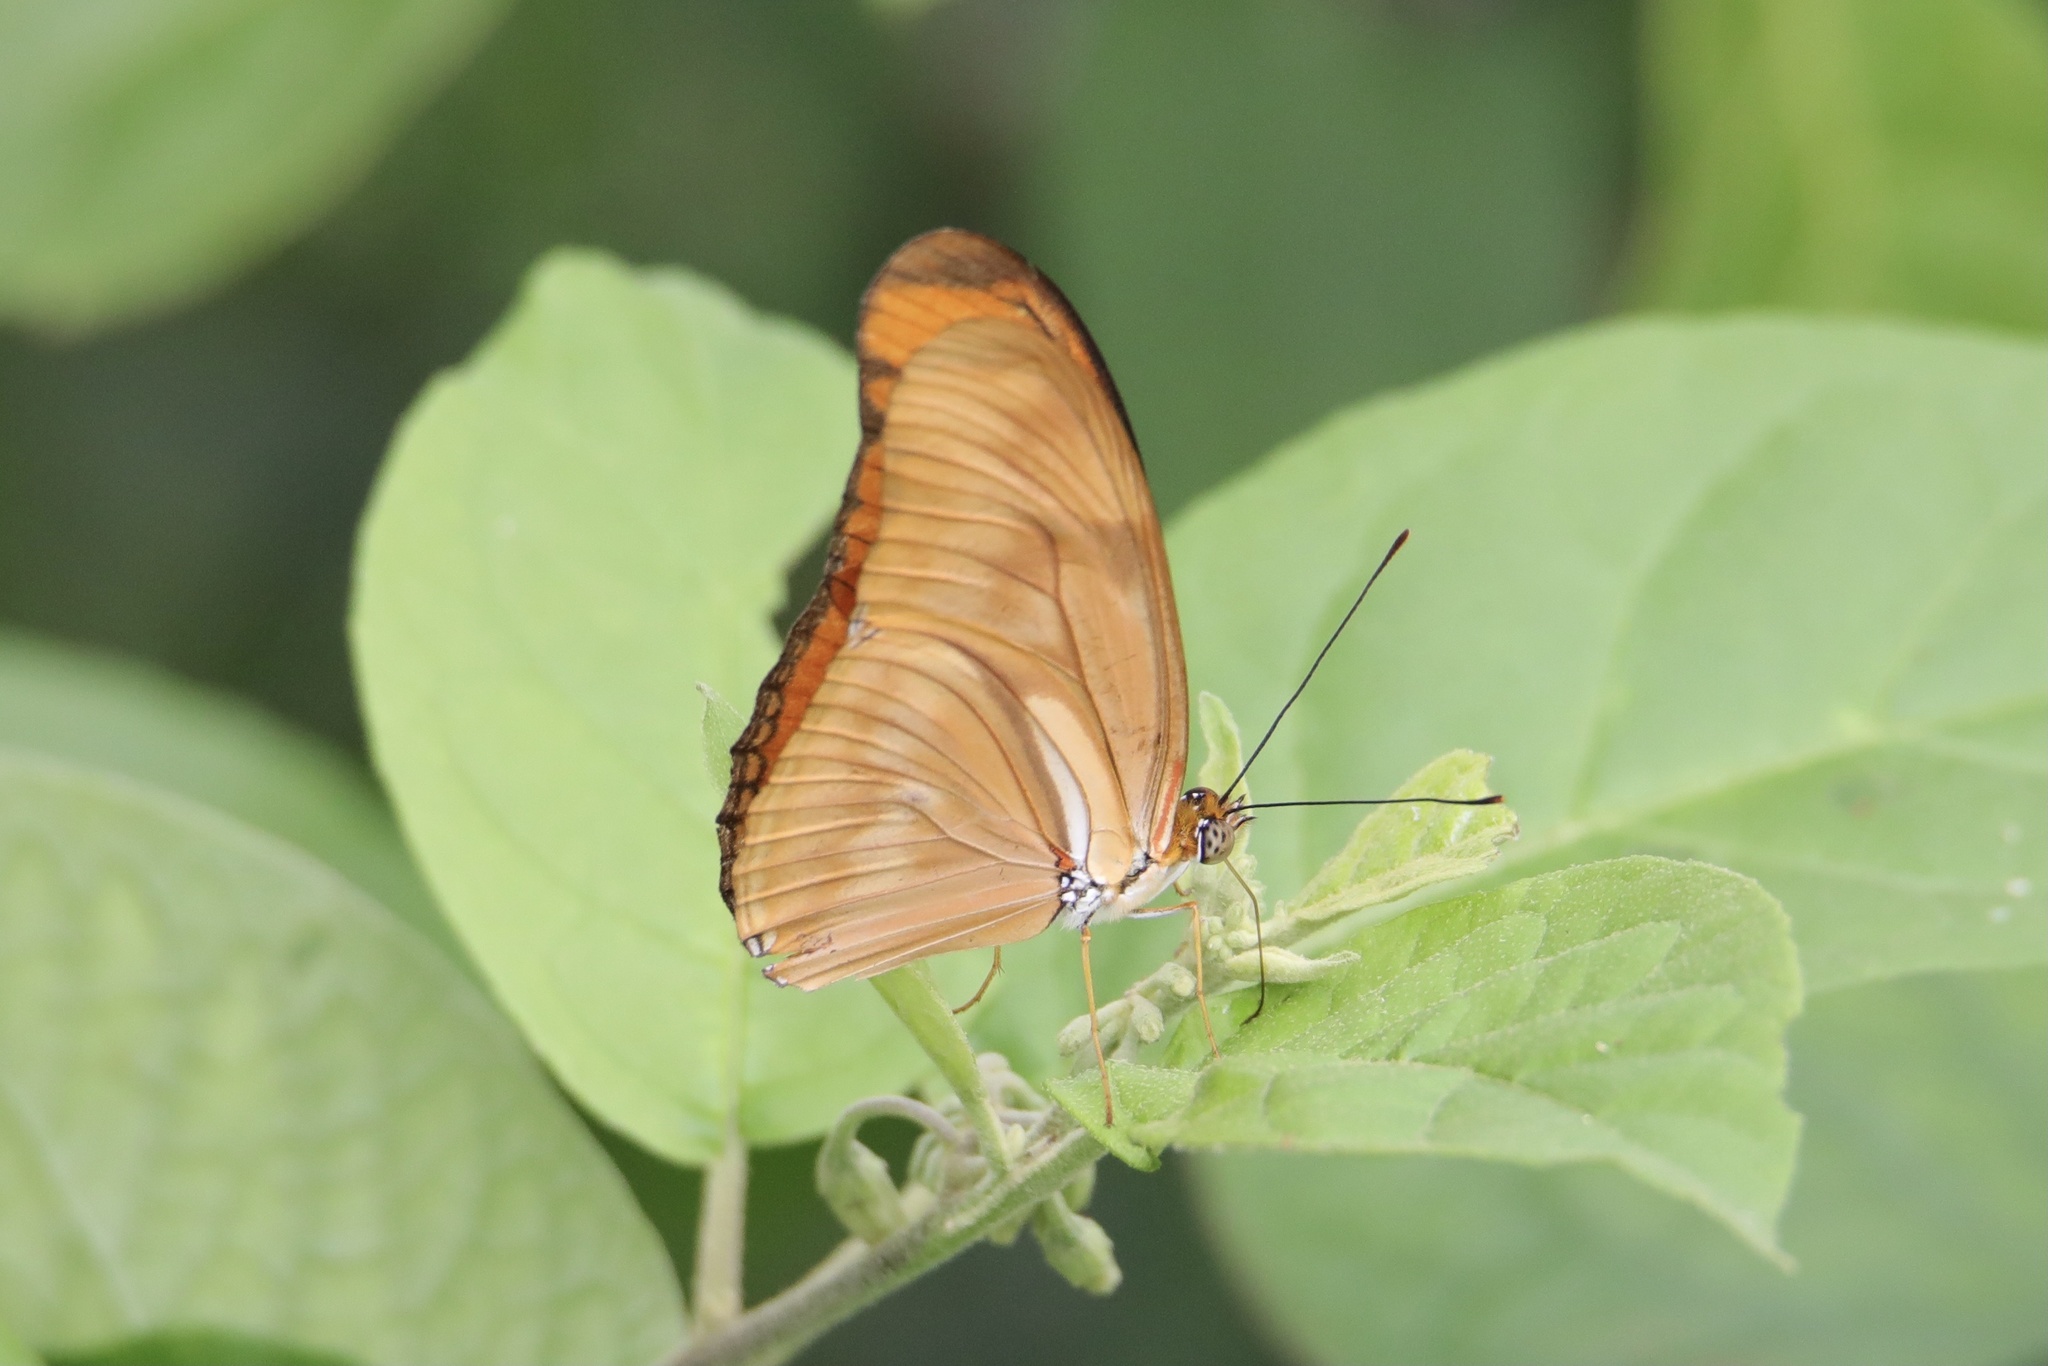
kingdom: Animalia
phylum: Arthropoda
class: Insecta
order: Lepidoptera
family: Nymphalidae
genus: Dryas
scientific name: Dryas iulia
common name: Flambeau
